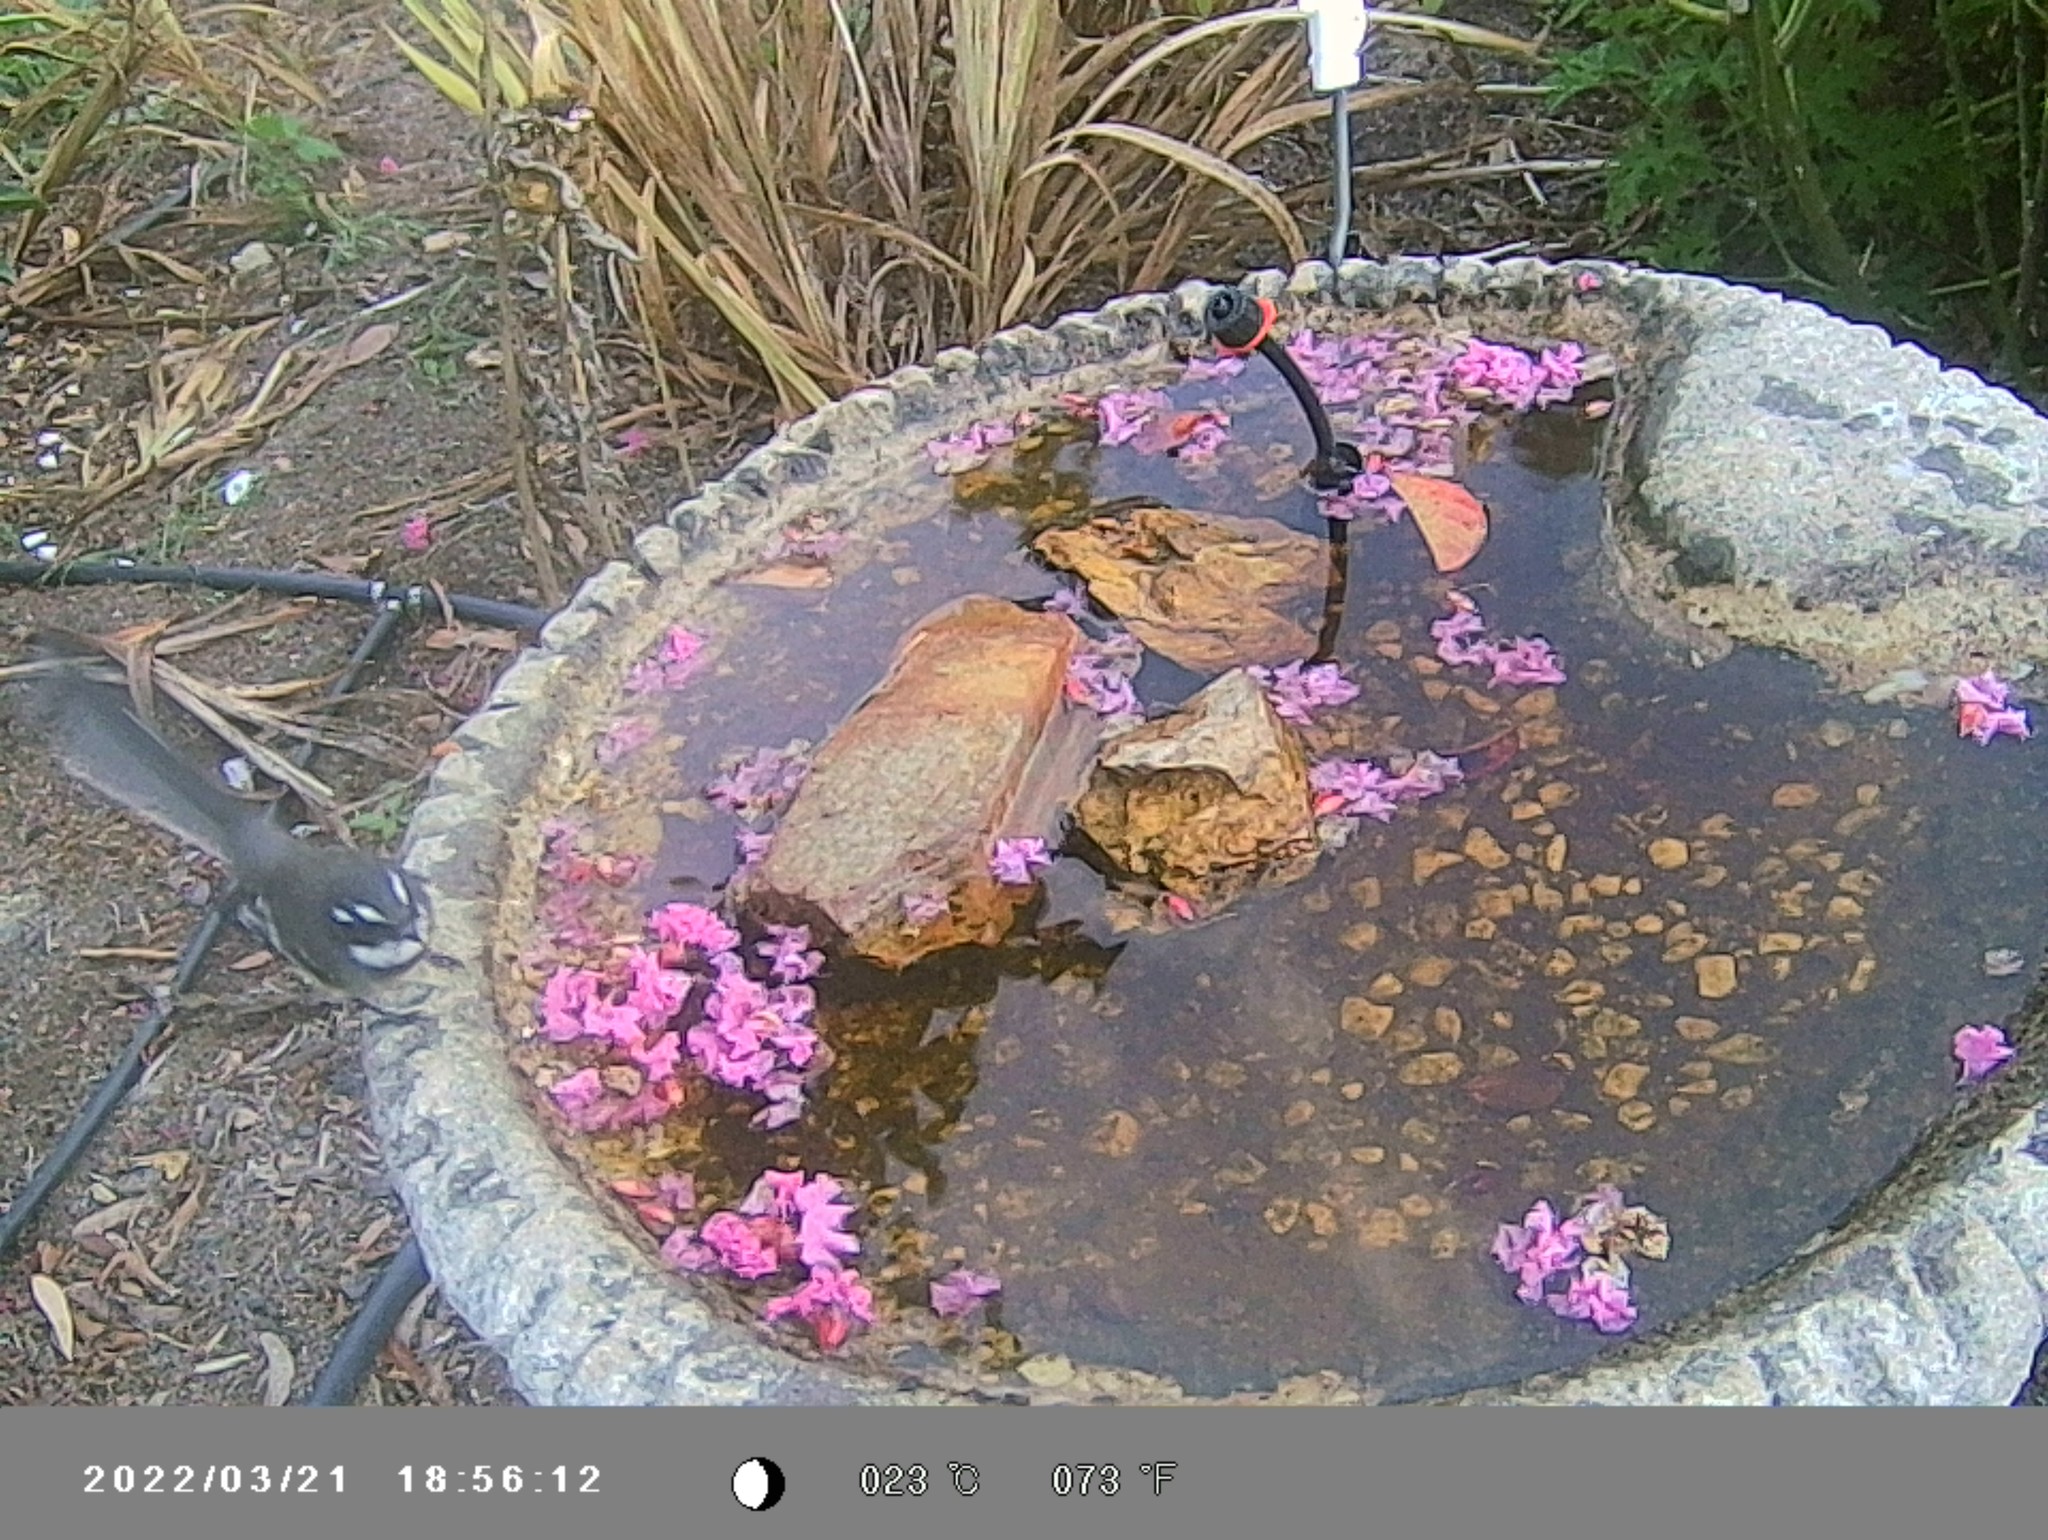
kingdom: Animalia
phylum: Chordata
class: Aves
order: Passeriformes
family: Rhipiduridae
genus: Rhipidura
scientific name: Rhipidura albiscapa
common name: Grey fantail
